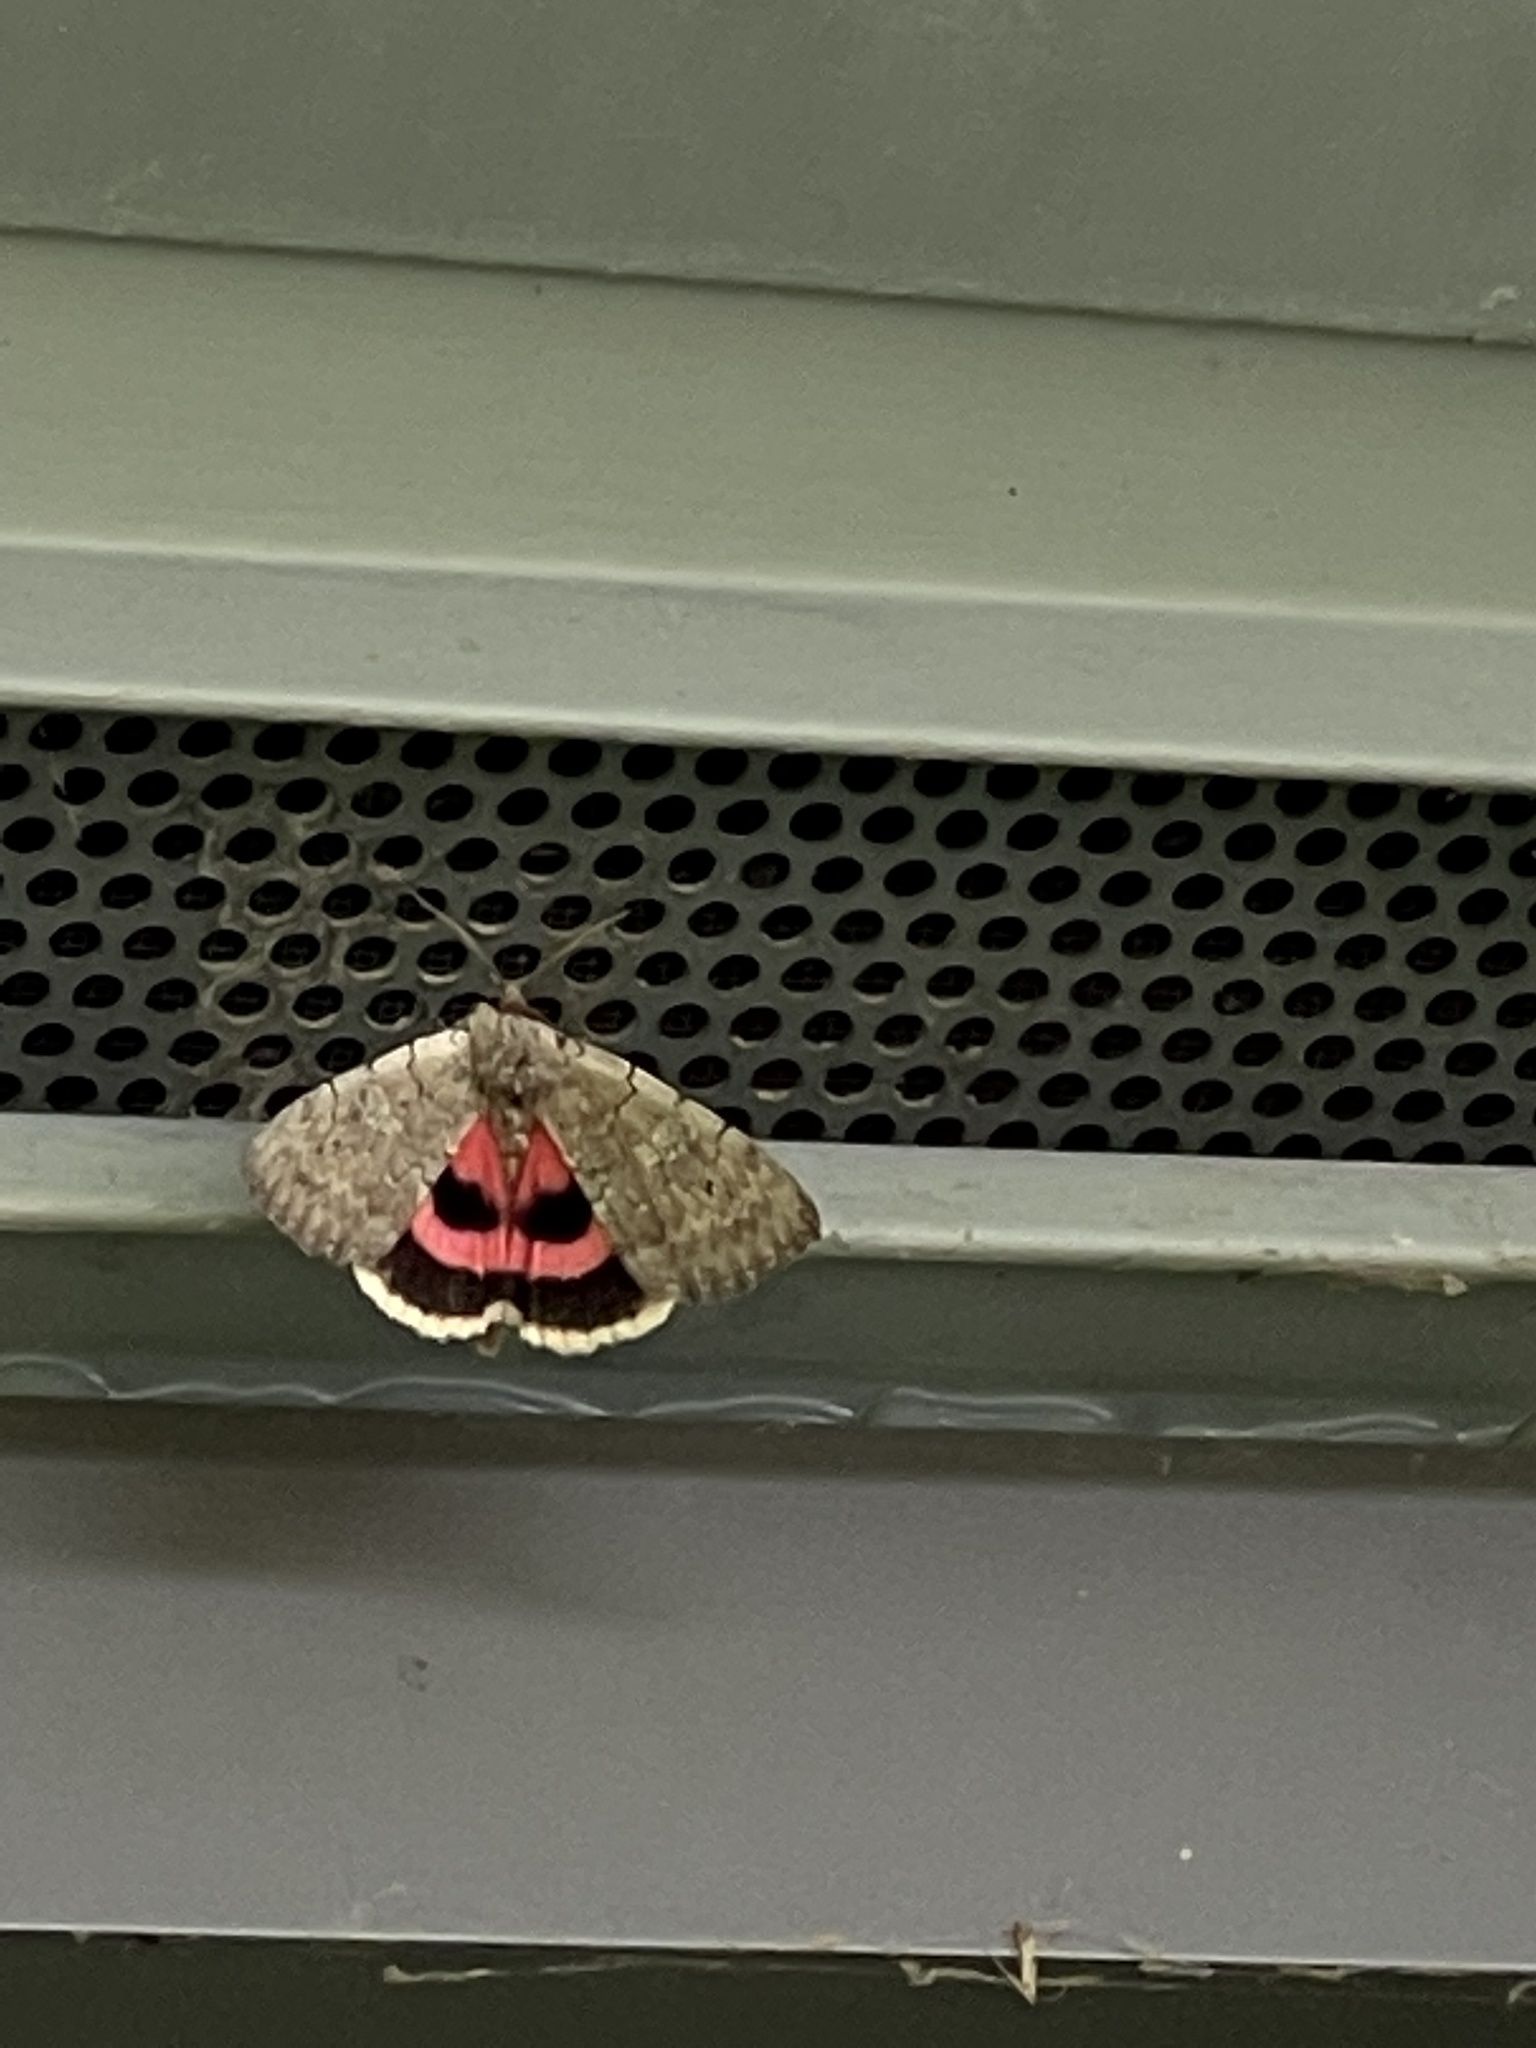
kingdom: Animalia
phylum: Arthropoda
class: Insecta
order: Lepidoptera
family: Erebidae
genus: Catocala
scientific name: Catocala concumbens
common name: Pink underwing
